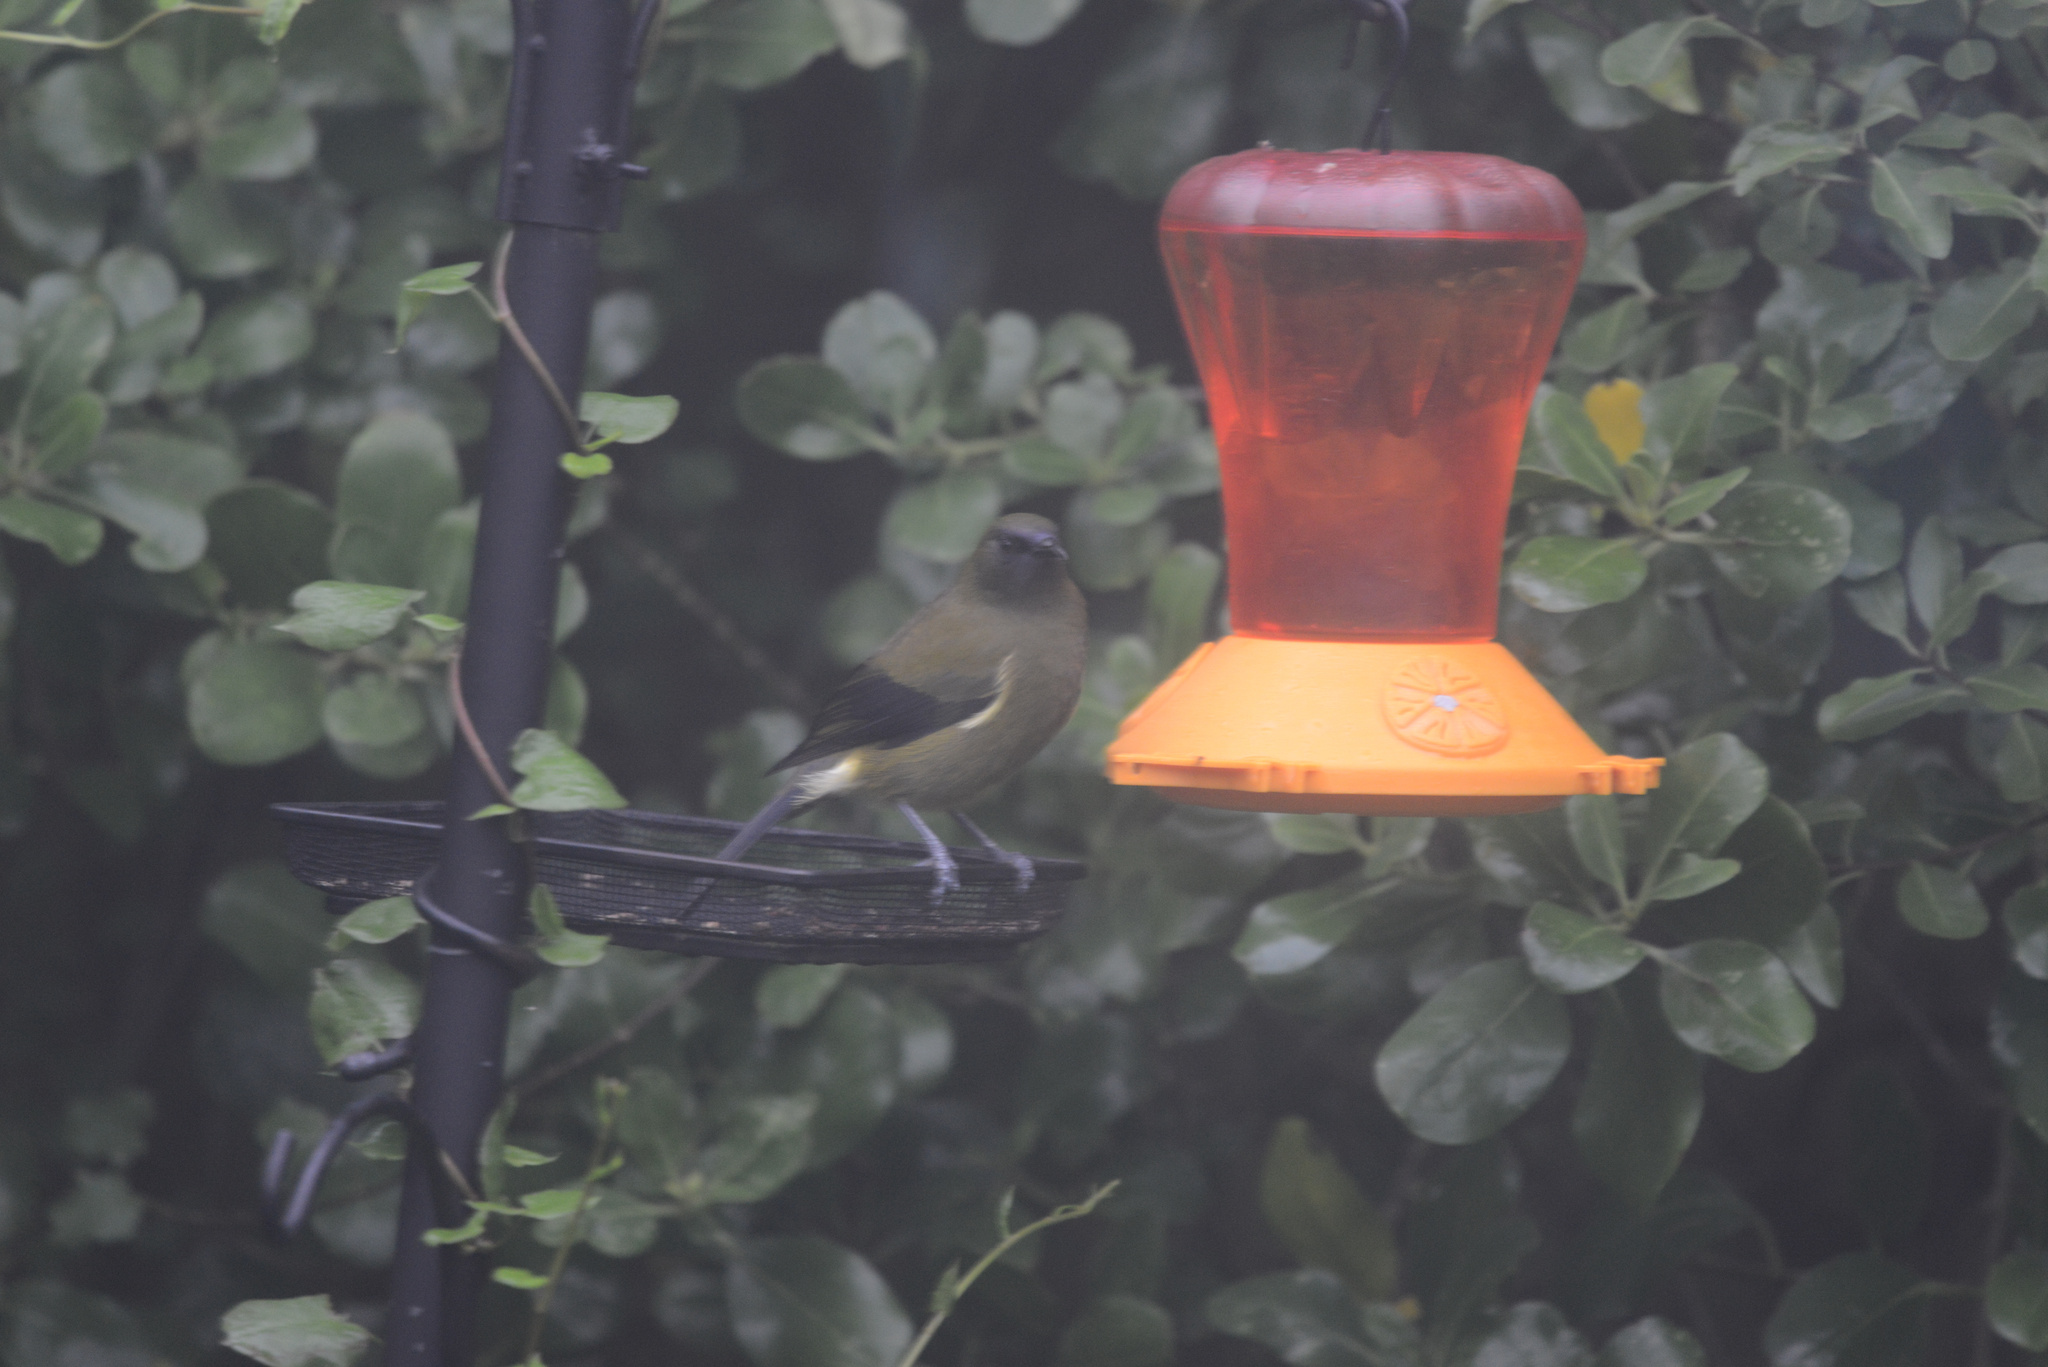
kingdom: Animalia
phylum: Chordata
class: Aves
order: Passeriformes
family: Meliphagidae
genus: Anthornis
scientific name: Anthornis melanura
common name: New zealand bellbird
